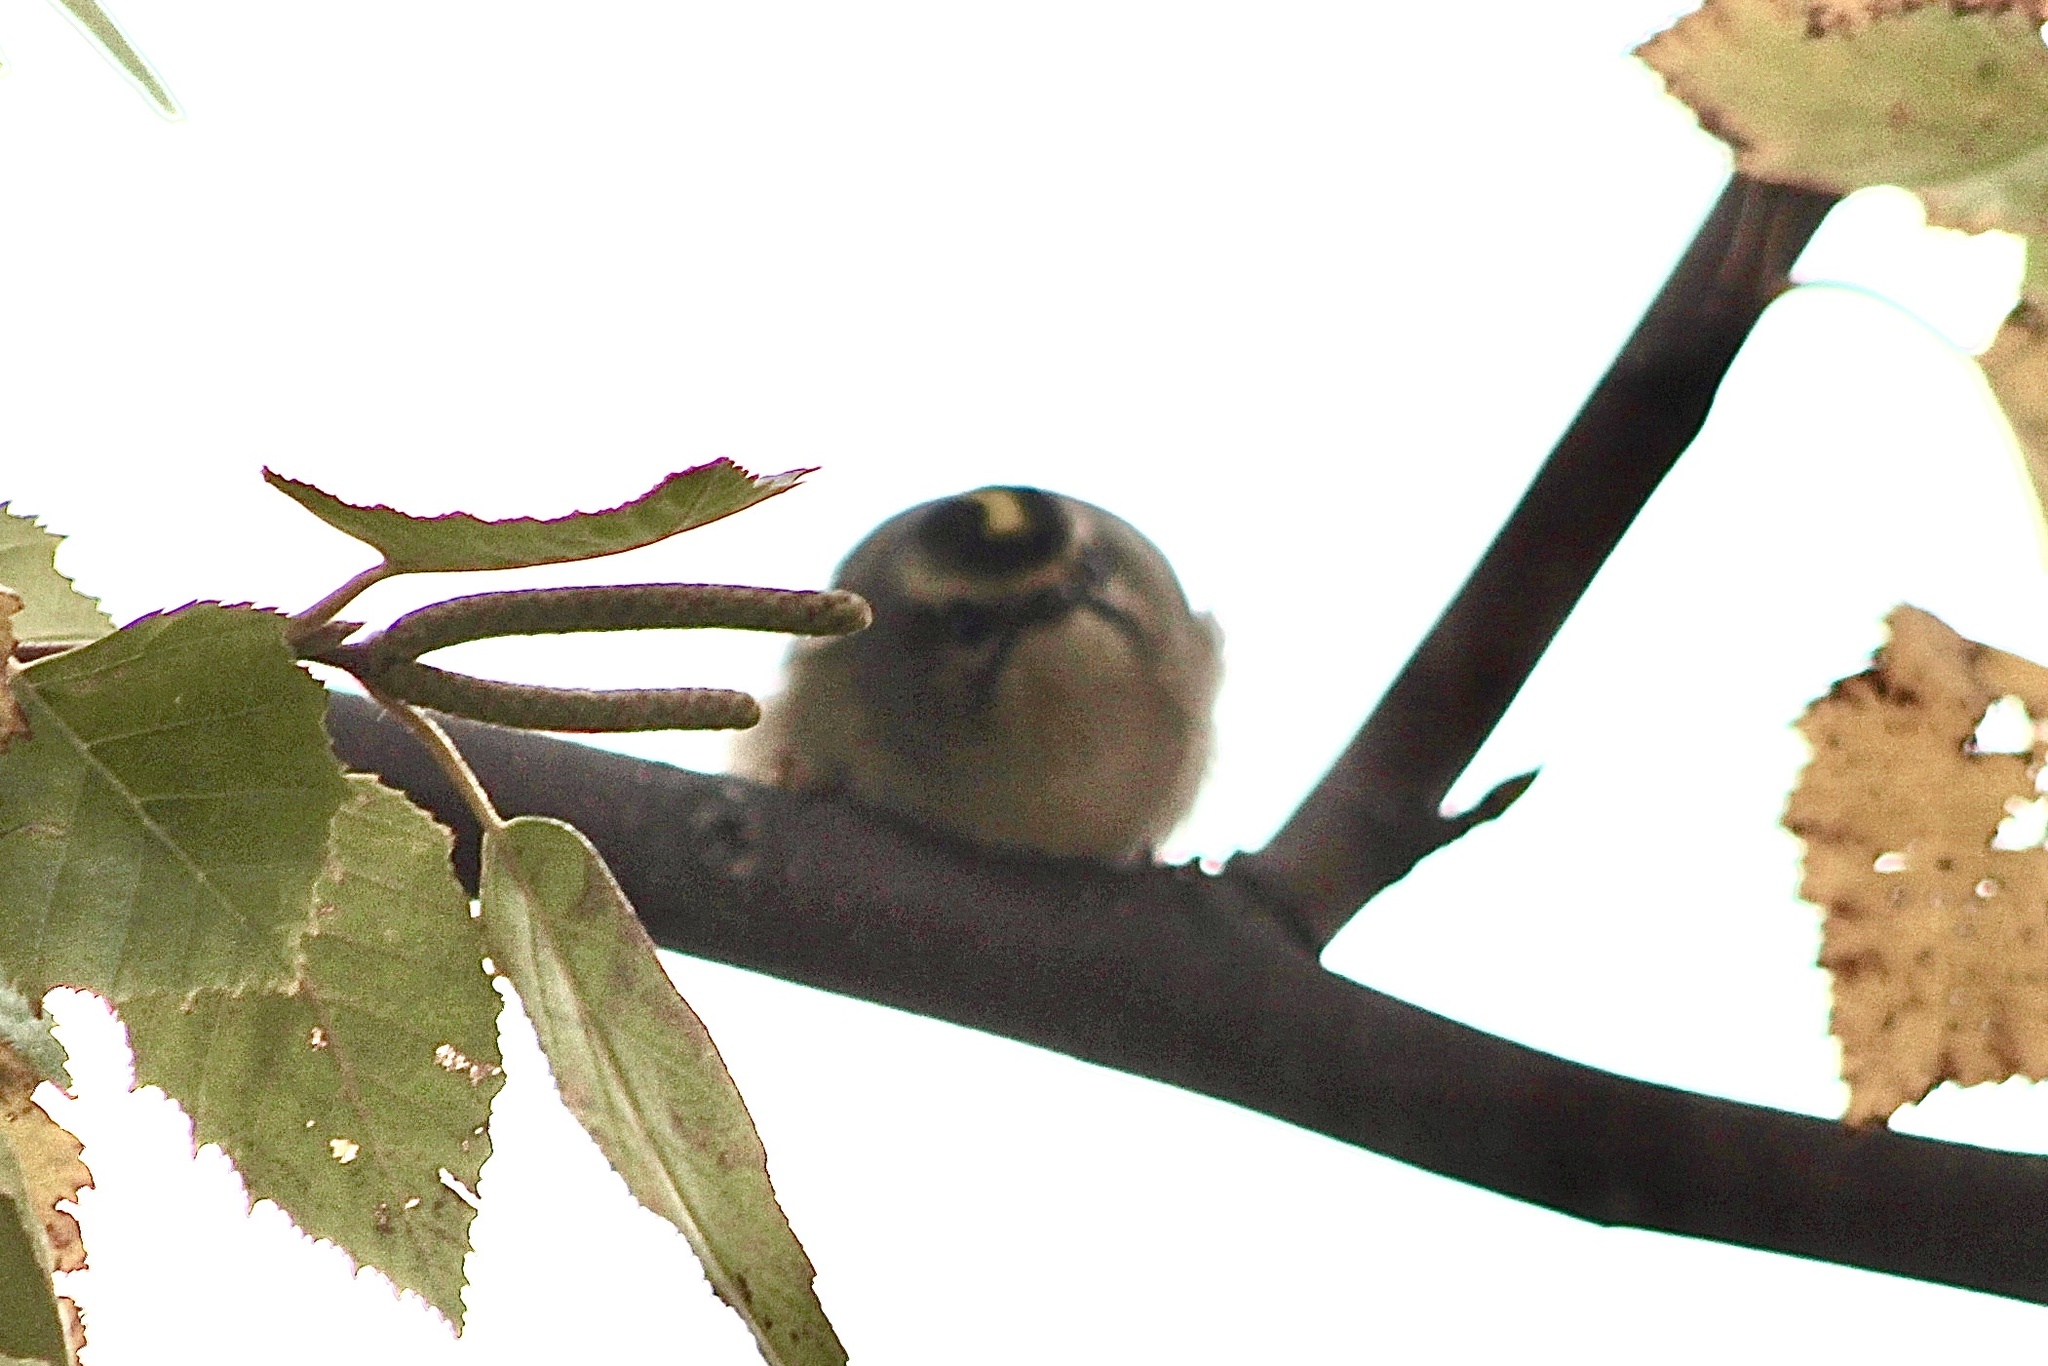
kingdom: Animalia
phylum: Chordata
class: Aves
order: Passeriformes
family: Regulidae
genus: Regulus
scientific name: Regulus satrapa
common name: Golden-crowned kinglet
